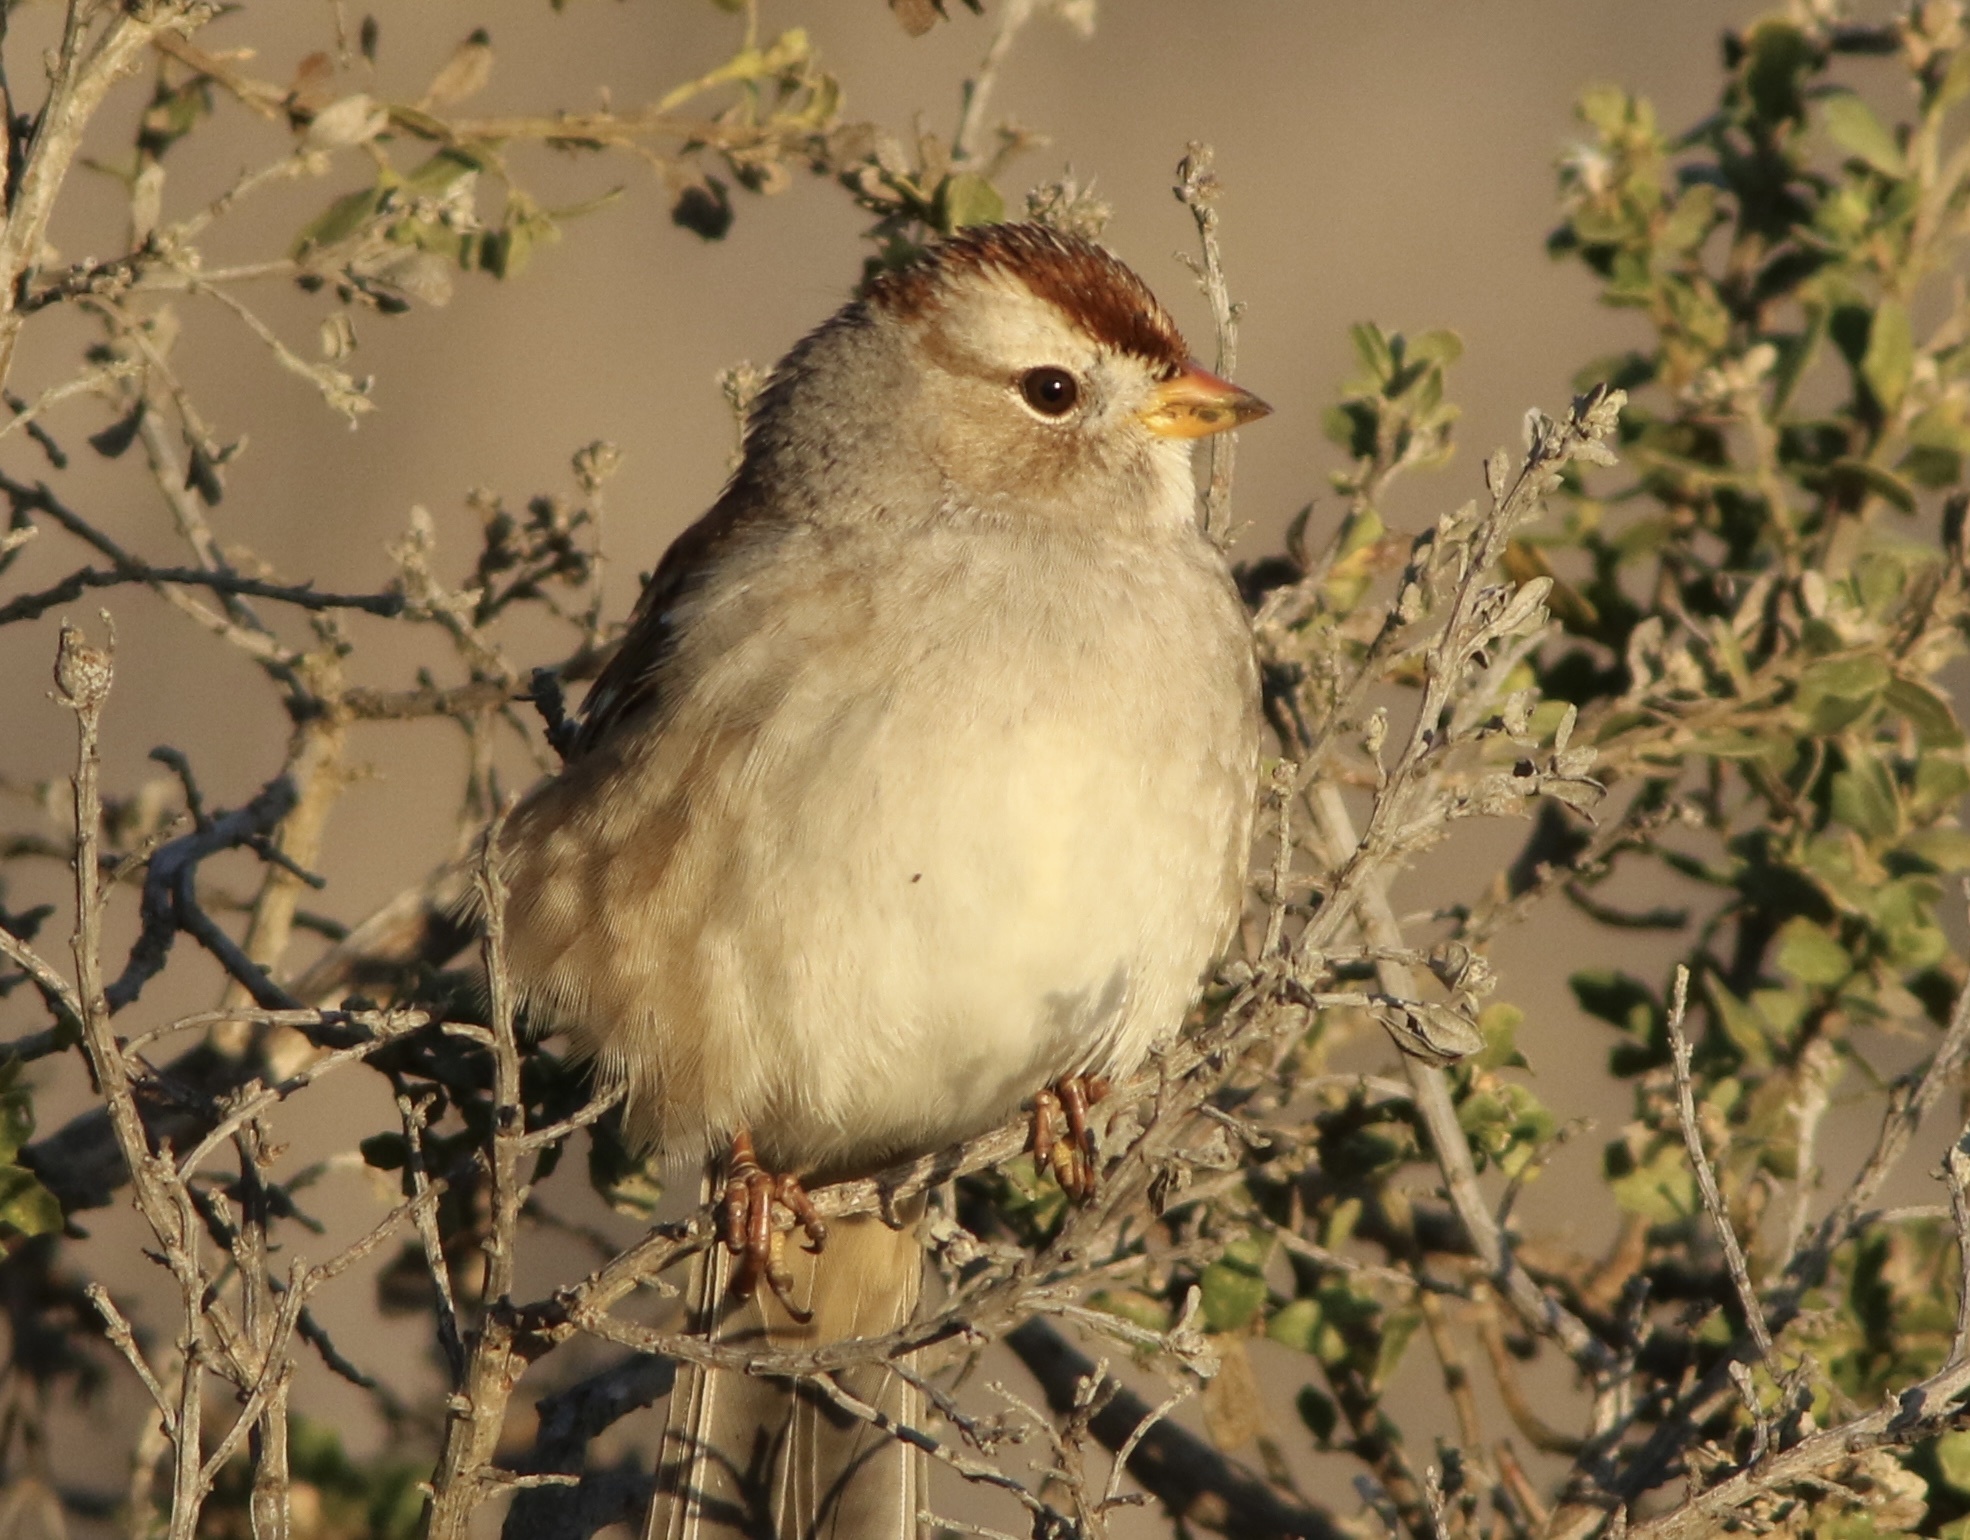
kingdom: Animalia
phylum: Chordata
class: Aves
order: Passeriformes
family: Passerellidae
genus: Zonotrichia
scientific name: Zonotrichia leucophrys
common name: White-crowned sparrow
